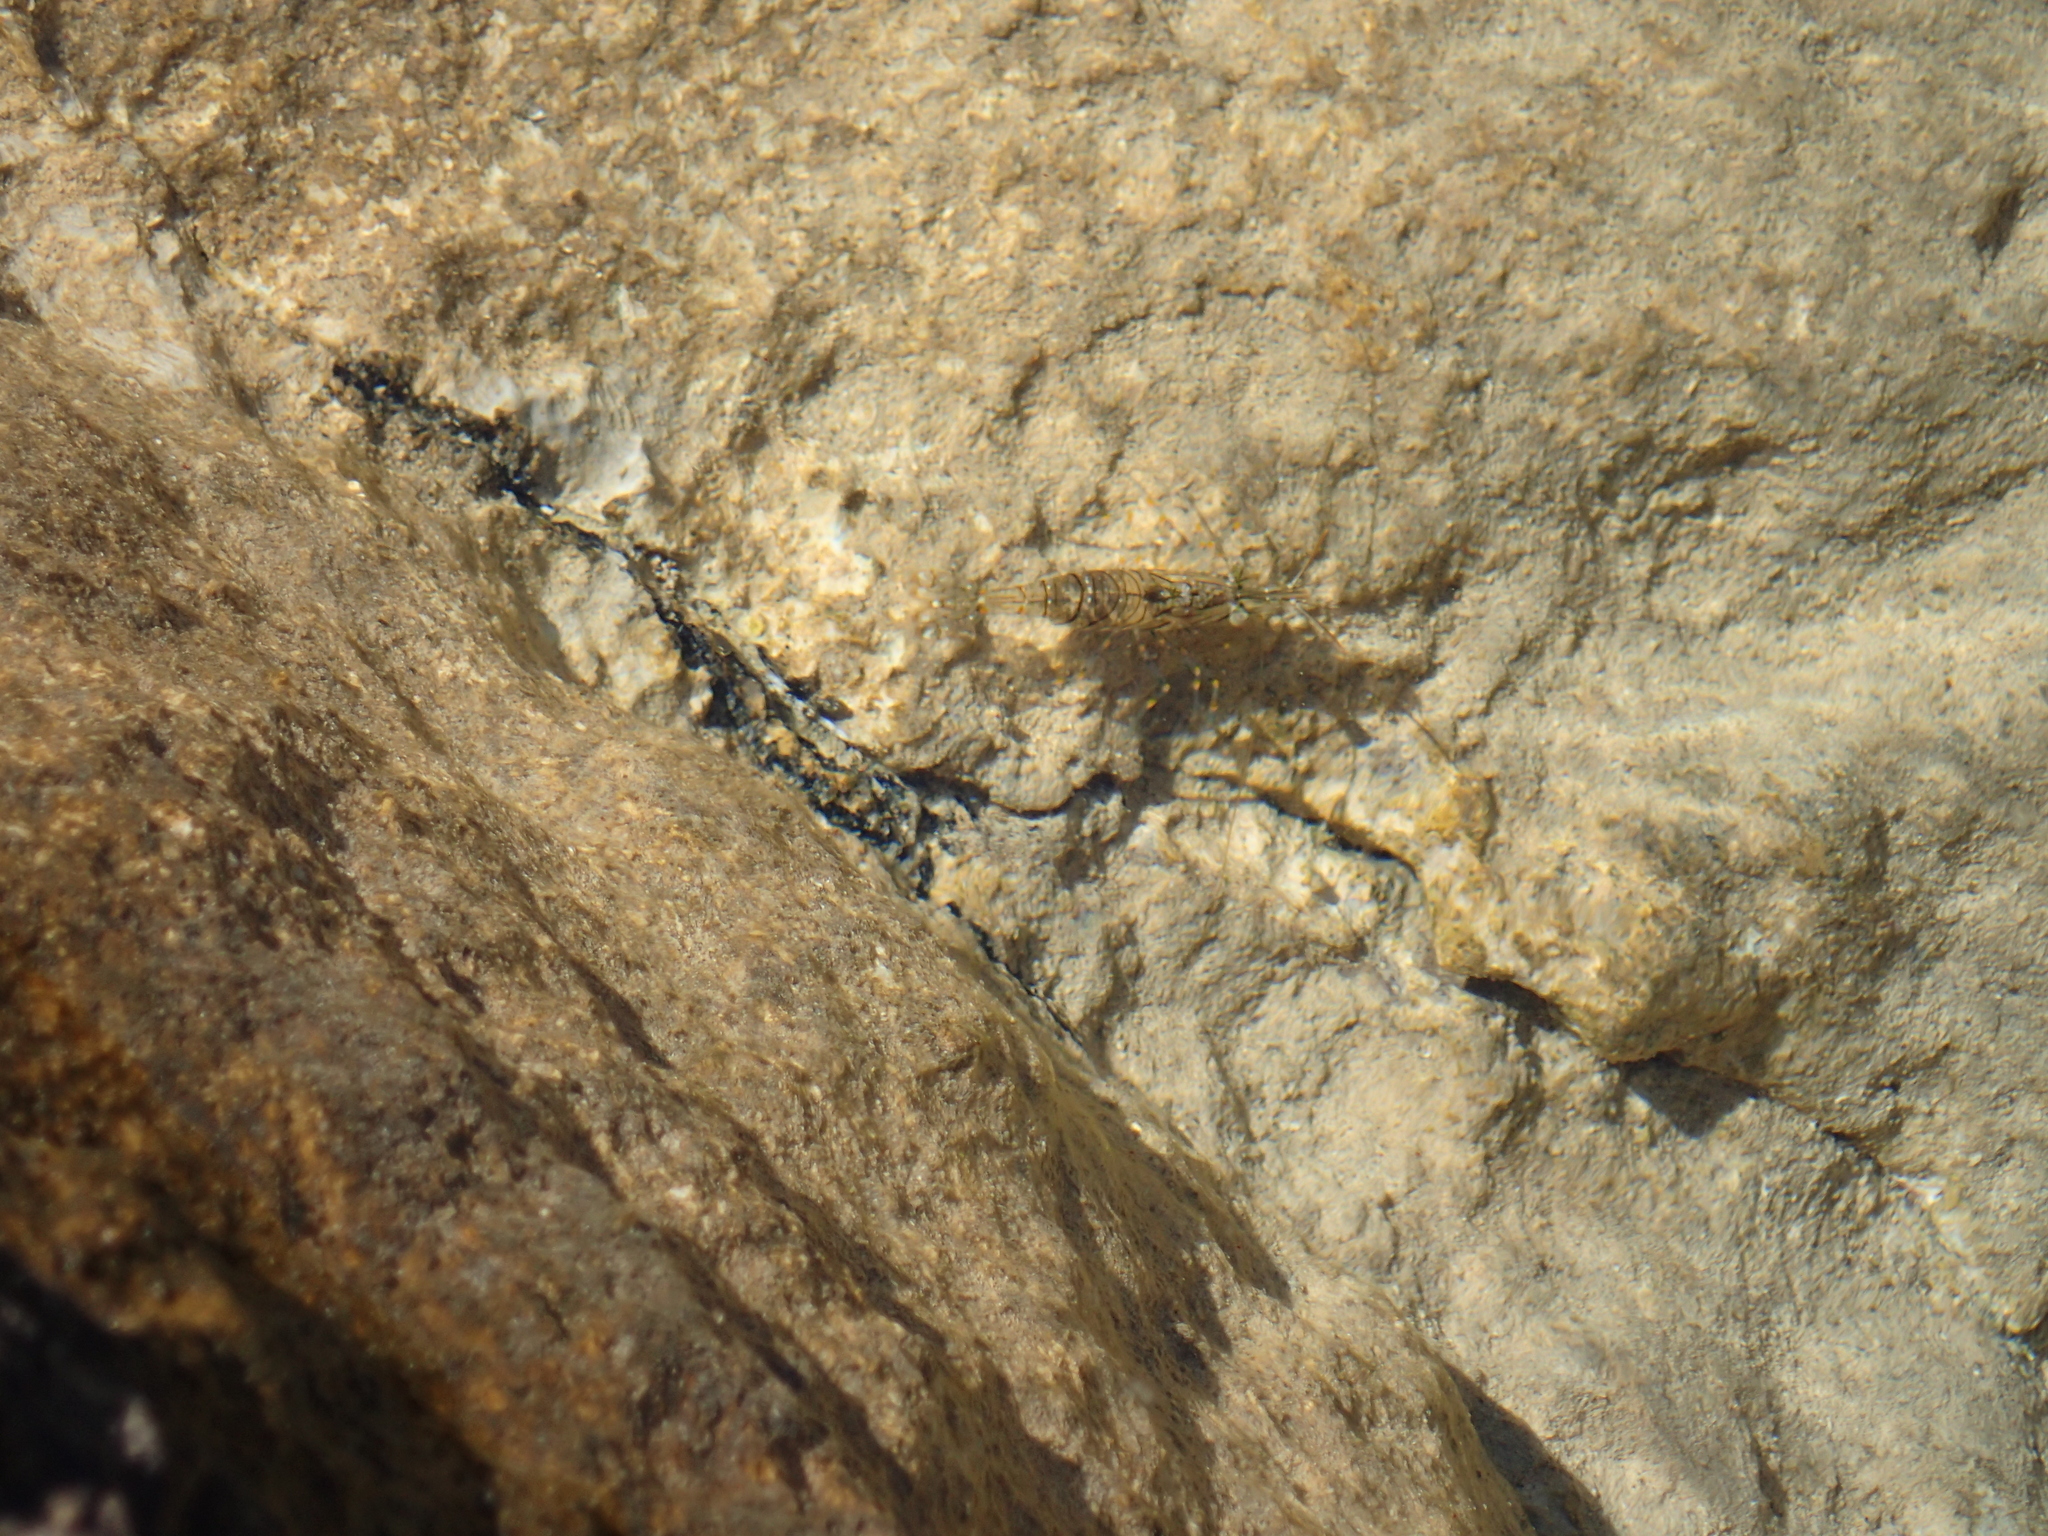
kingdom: Animalia
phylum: Arthropoda
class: Malacostraca
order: Decapoda
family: Palaemonidae
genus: Palaemon
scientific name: Palaemon elegans
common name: Grass prawm
